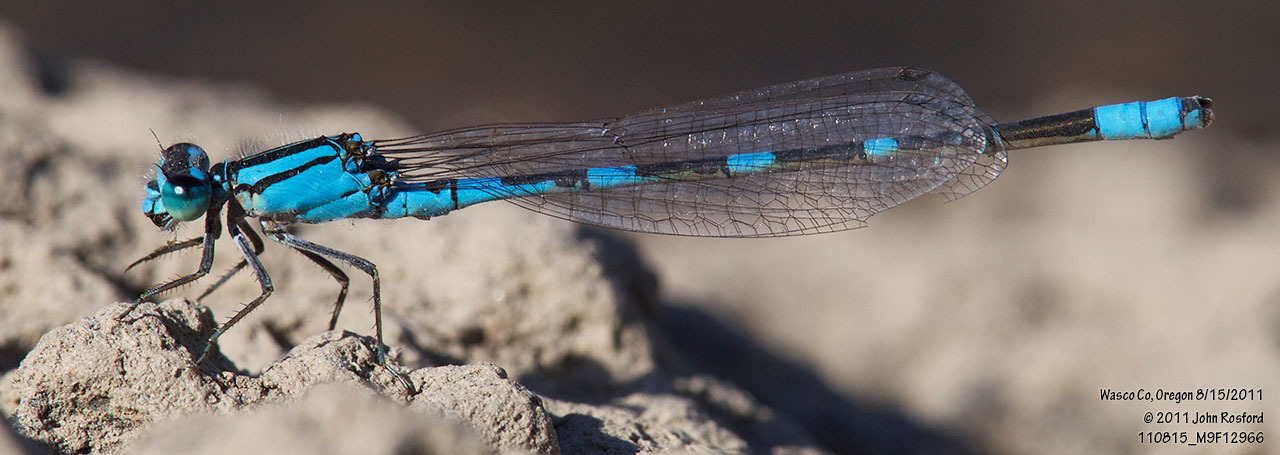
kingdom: Animalia
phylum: Arthropoda
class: Insecta
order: Odonata
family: Coenagrionidae
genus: Enallagma
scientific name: Enallagma carunculatum
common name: Tule bluet
